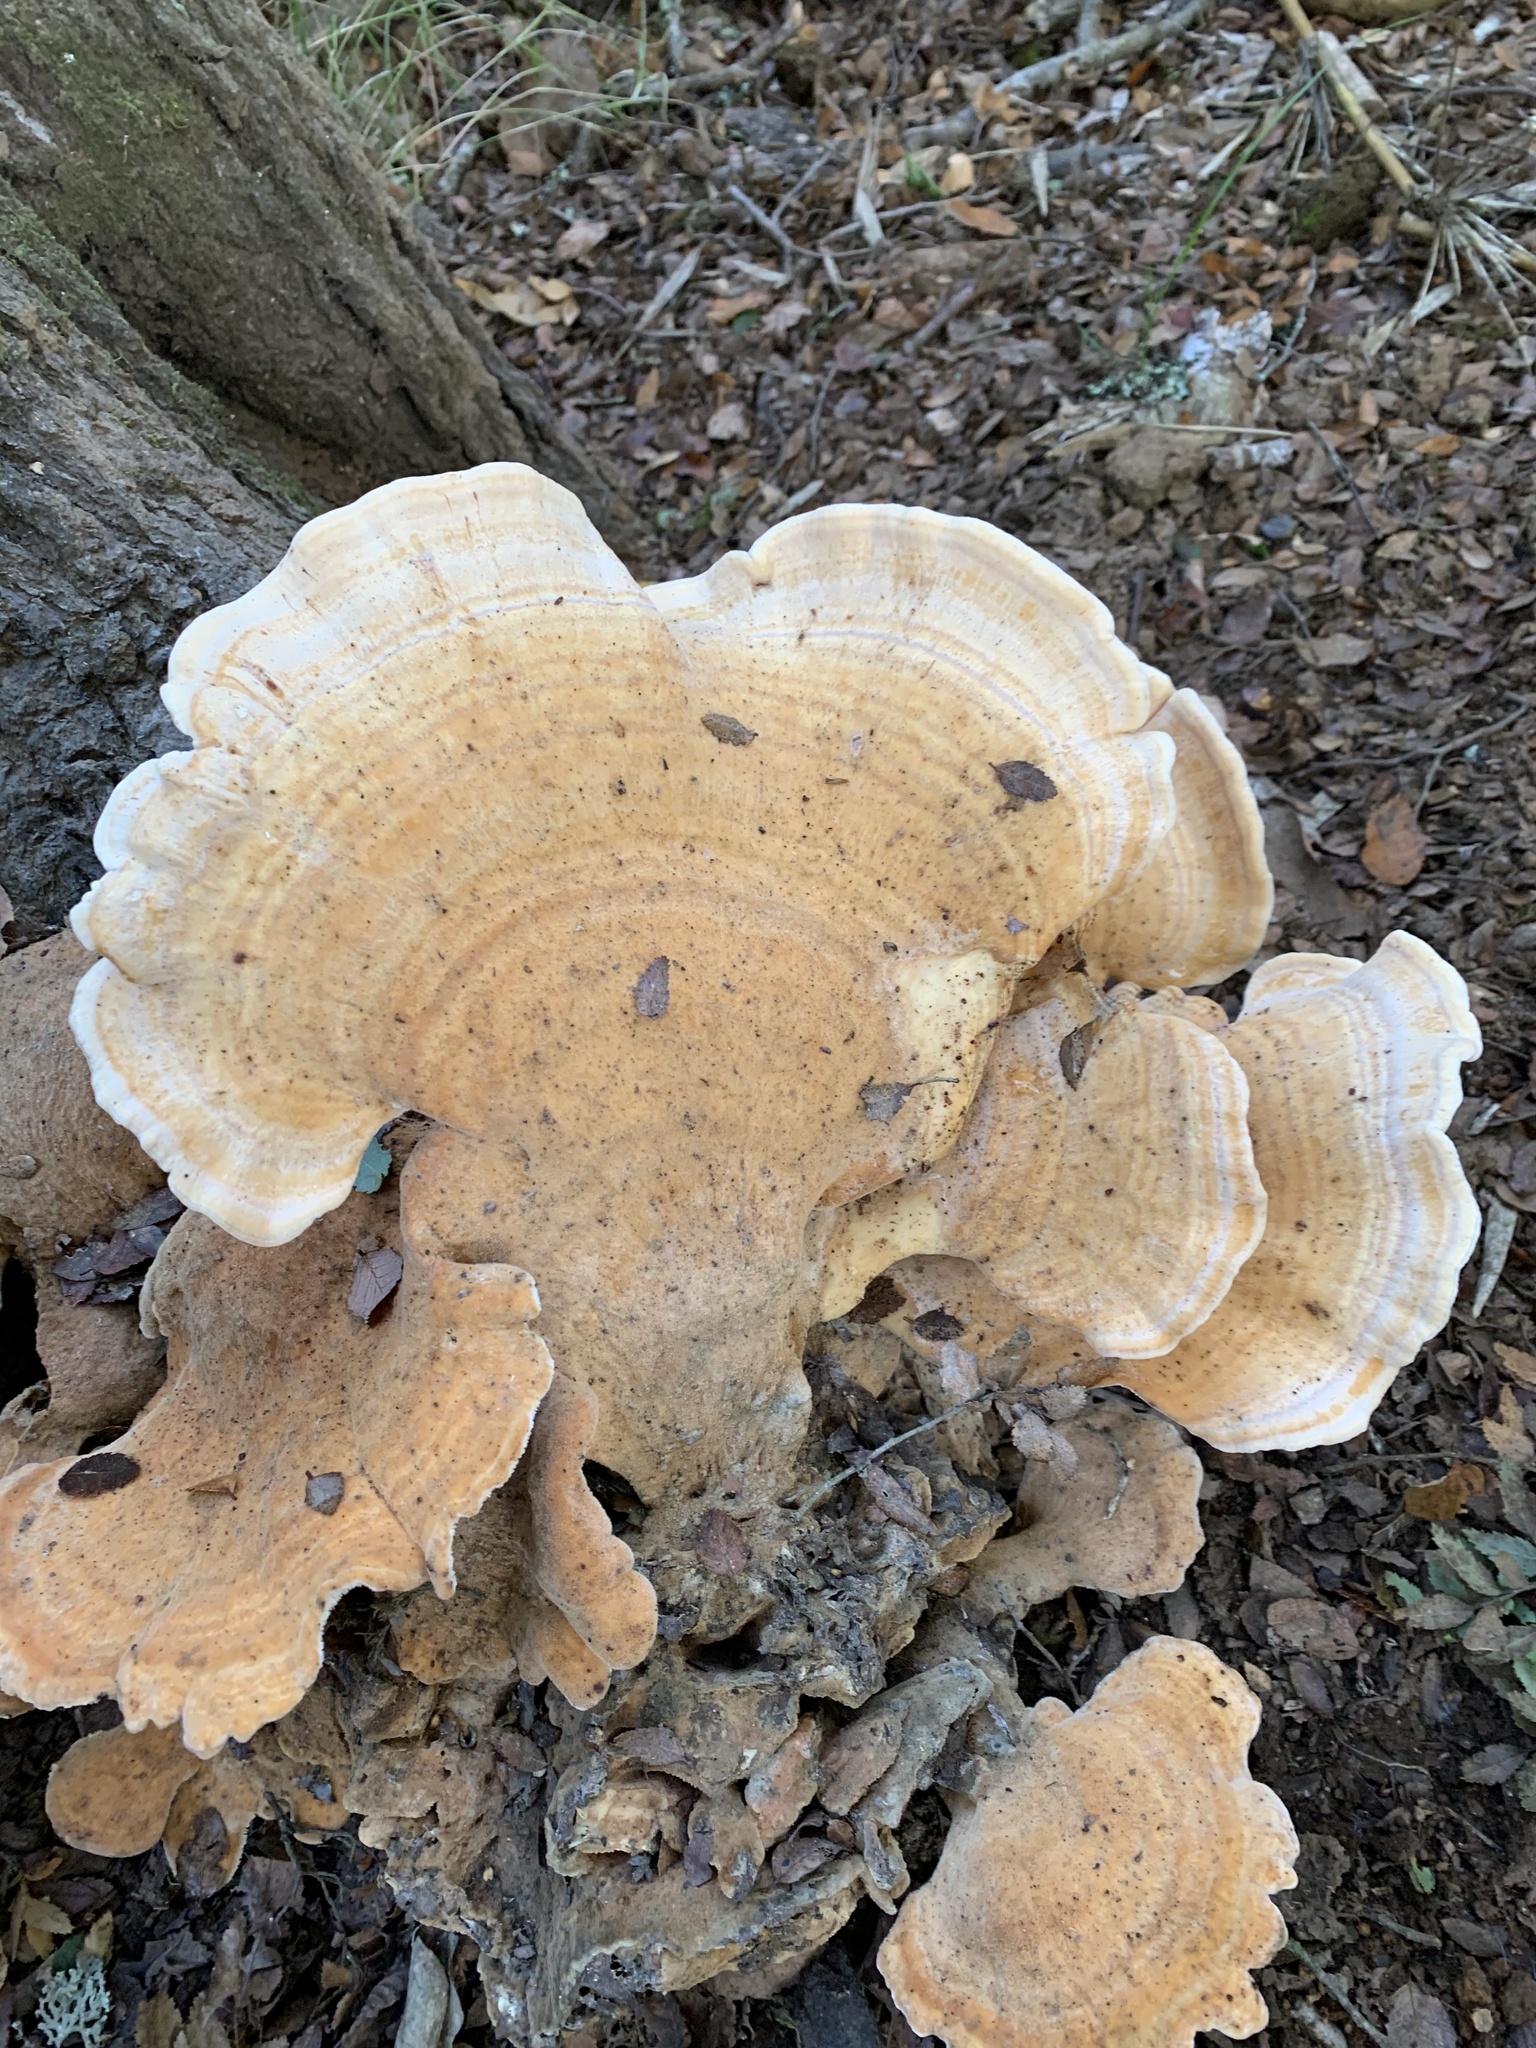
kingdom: Fungi
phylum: Basidiomycota
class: Agaricomycetes
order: Russulales
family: Bondarzewiaceae
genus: Bondarzewia
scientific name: Bondarzewia guaitecasensis
